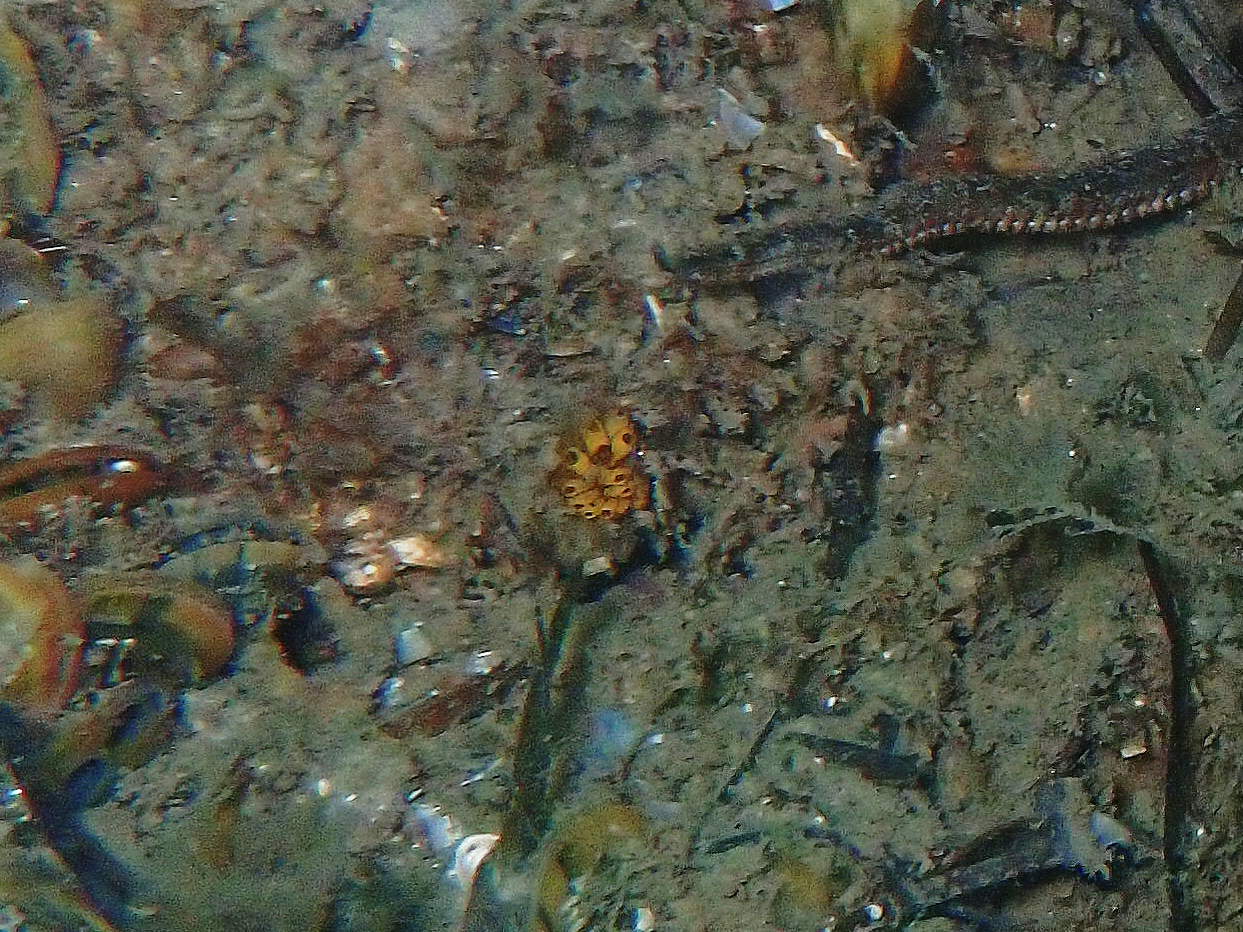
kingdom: Animalia
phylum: Chordata
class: Ascidiacea
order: Stolidobranchia
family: Styelidae
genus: Botrylloides
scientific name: Botrylloides diegensis
